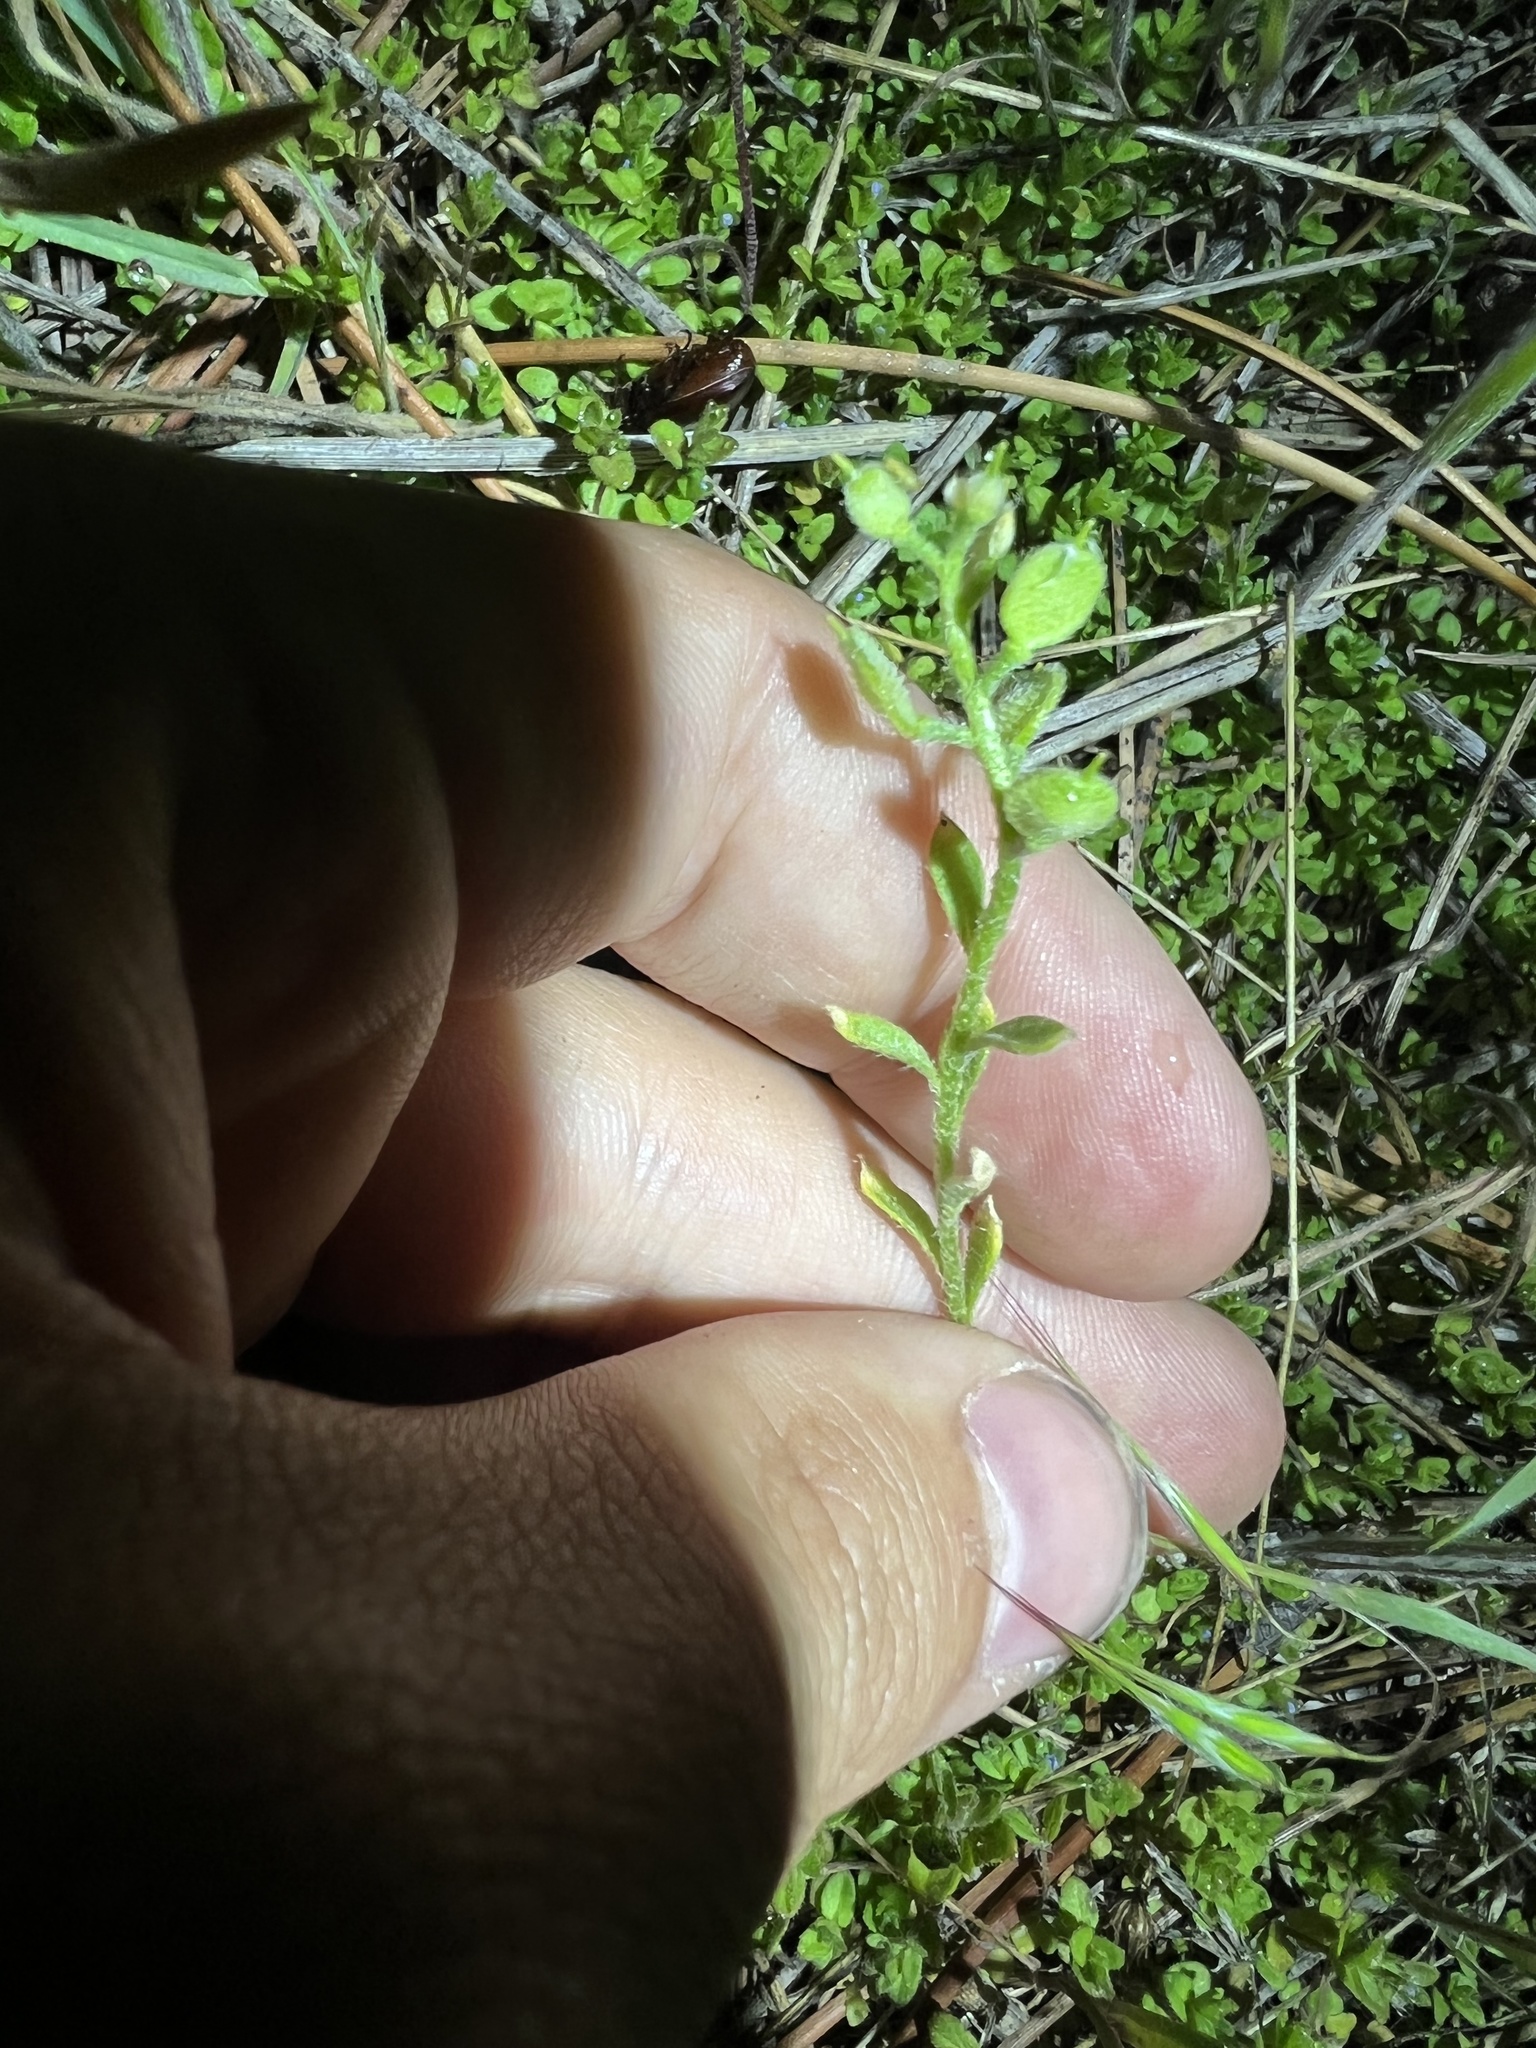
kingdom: Plantae
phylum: Tracheophyta
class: Magnoliopsida
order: Brassicales
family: Brassicaceae
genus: Alyssum
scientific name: Alyssum simplex
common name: Alyssum
